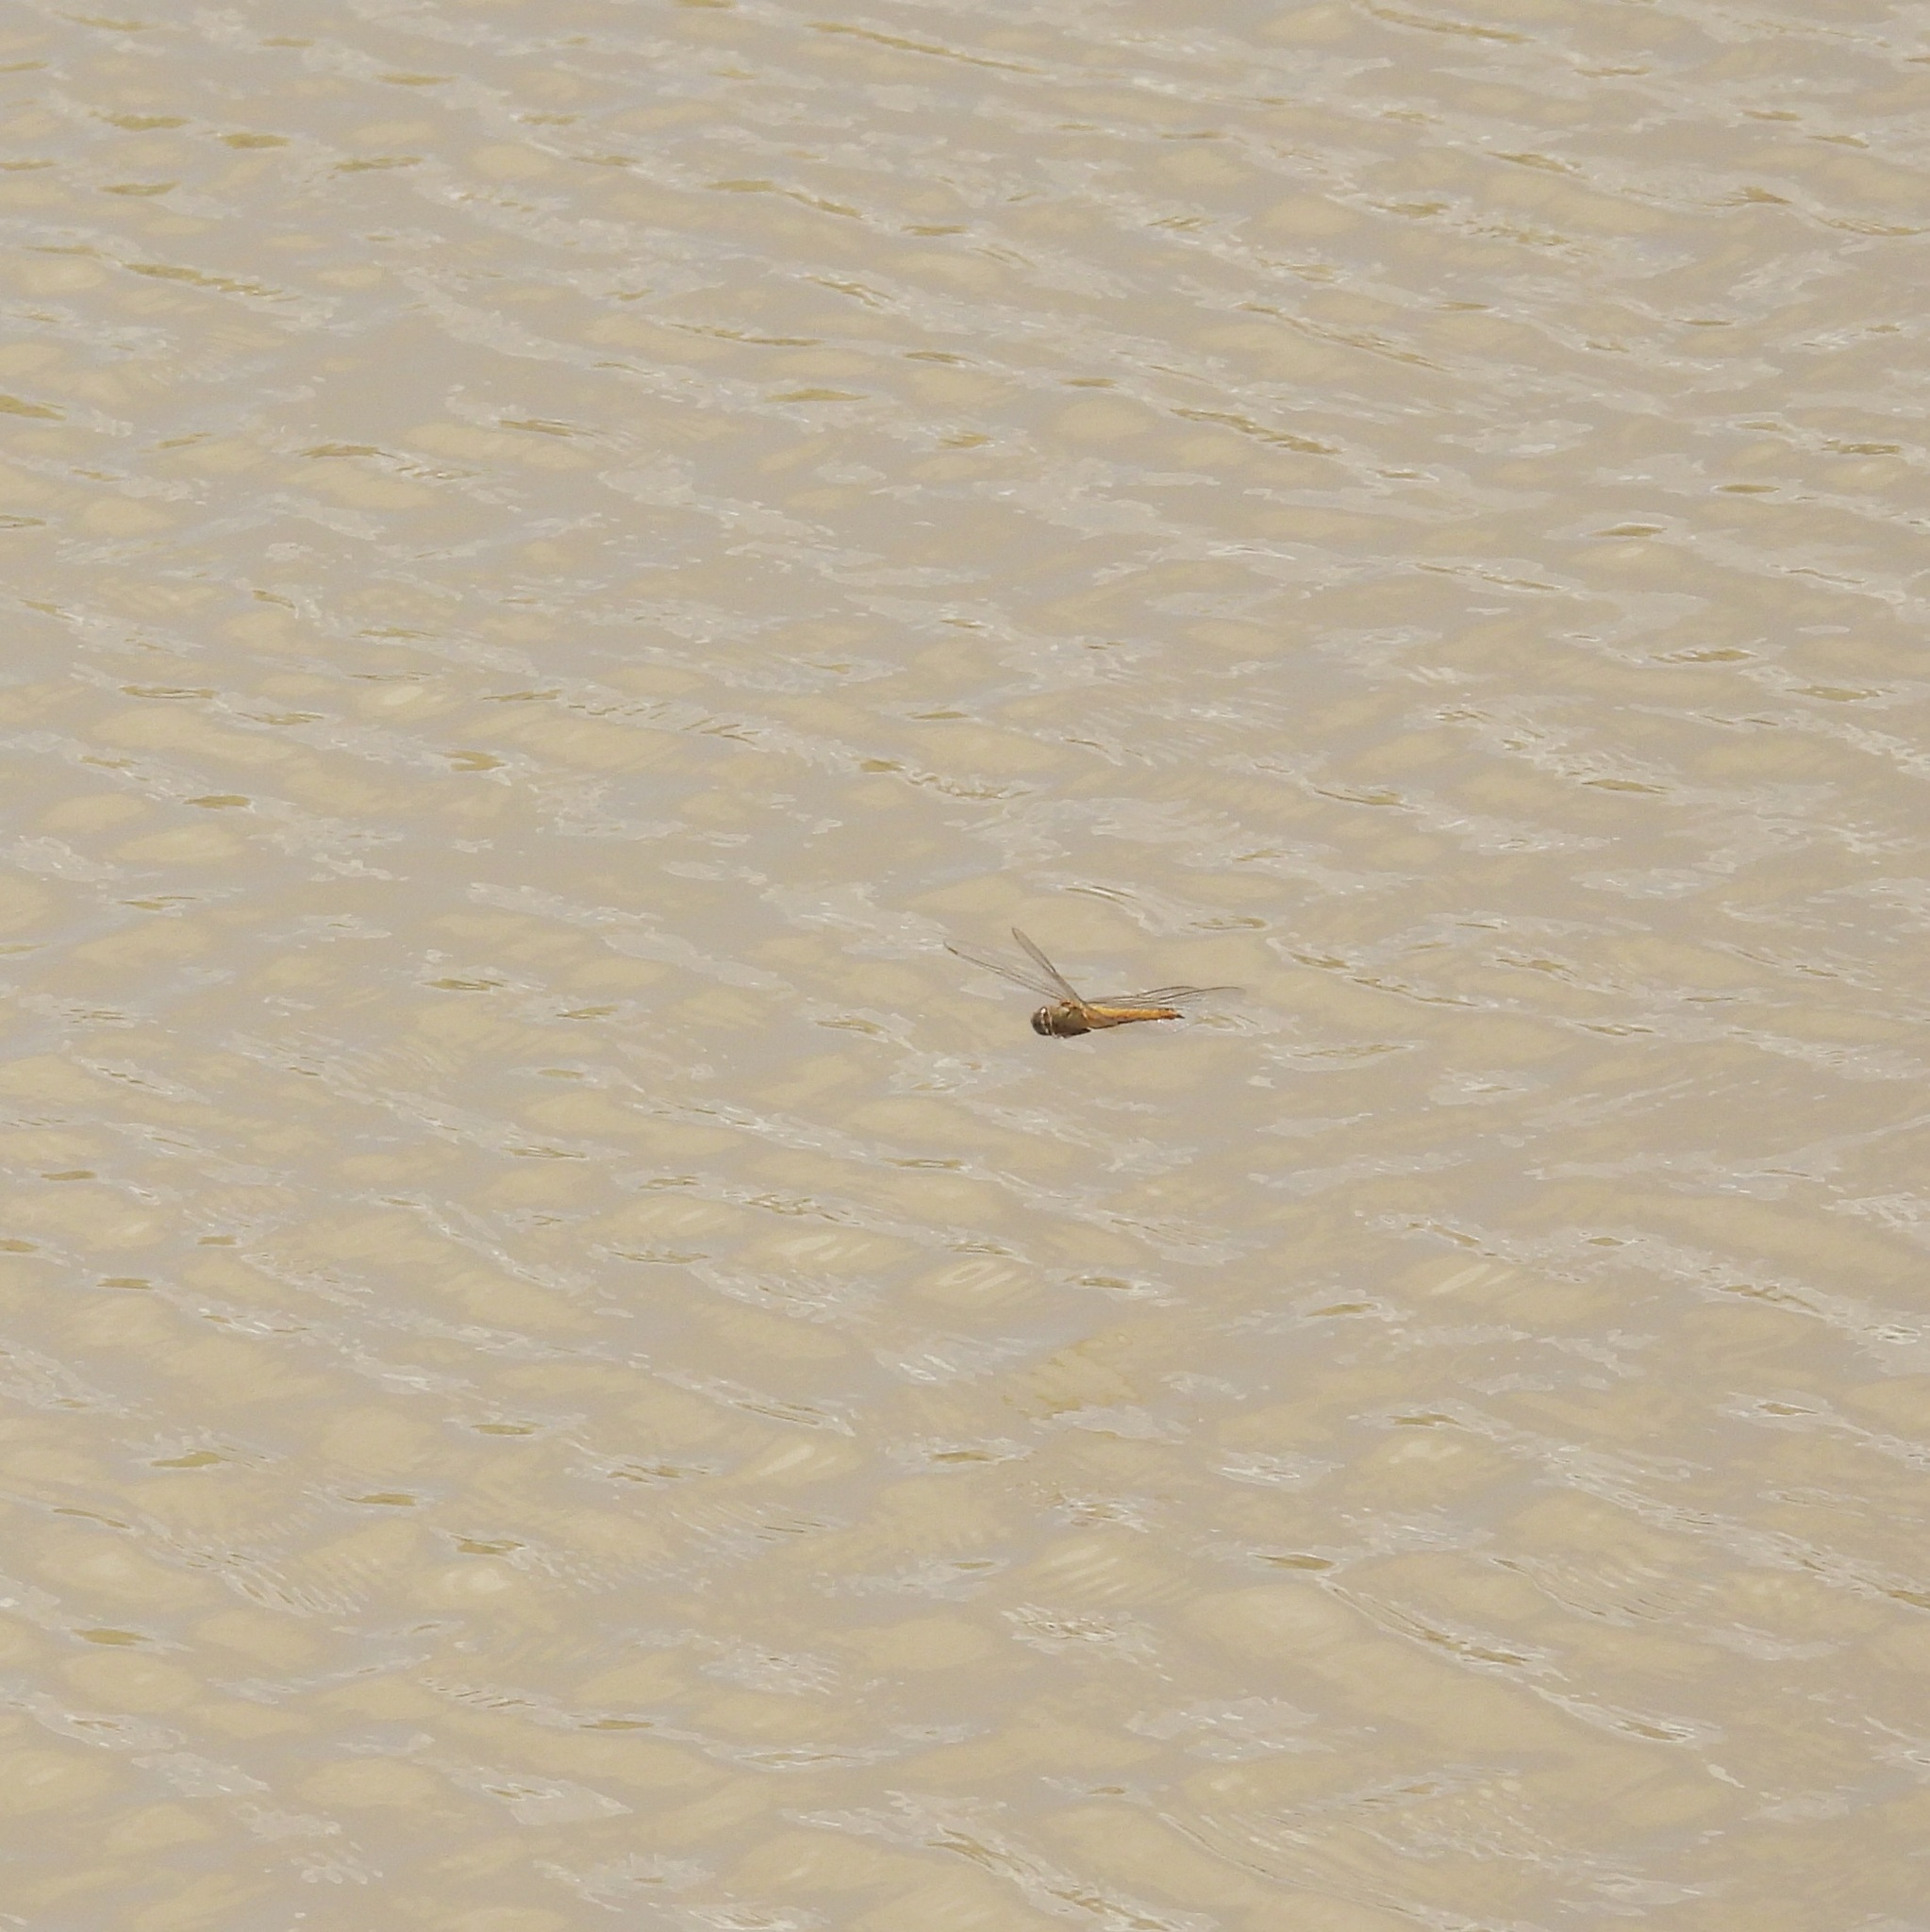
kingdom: Animalia
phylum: Arthropoda
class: Insecta
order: Odonata
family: Libellulidae
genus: Pantala
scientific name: Pantala flavescens
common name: Wandering glider
